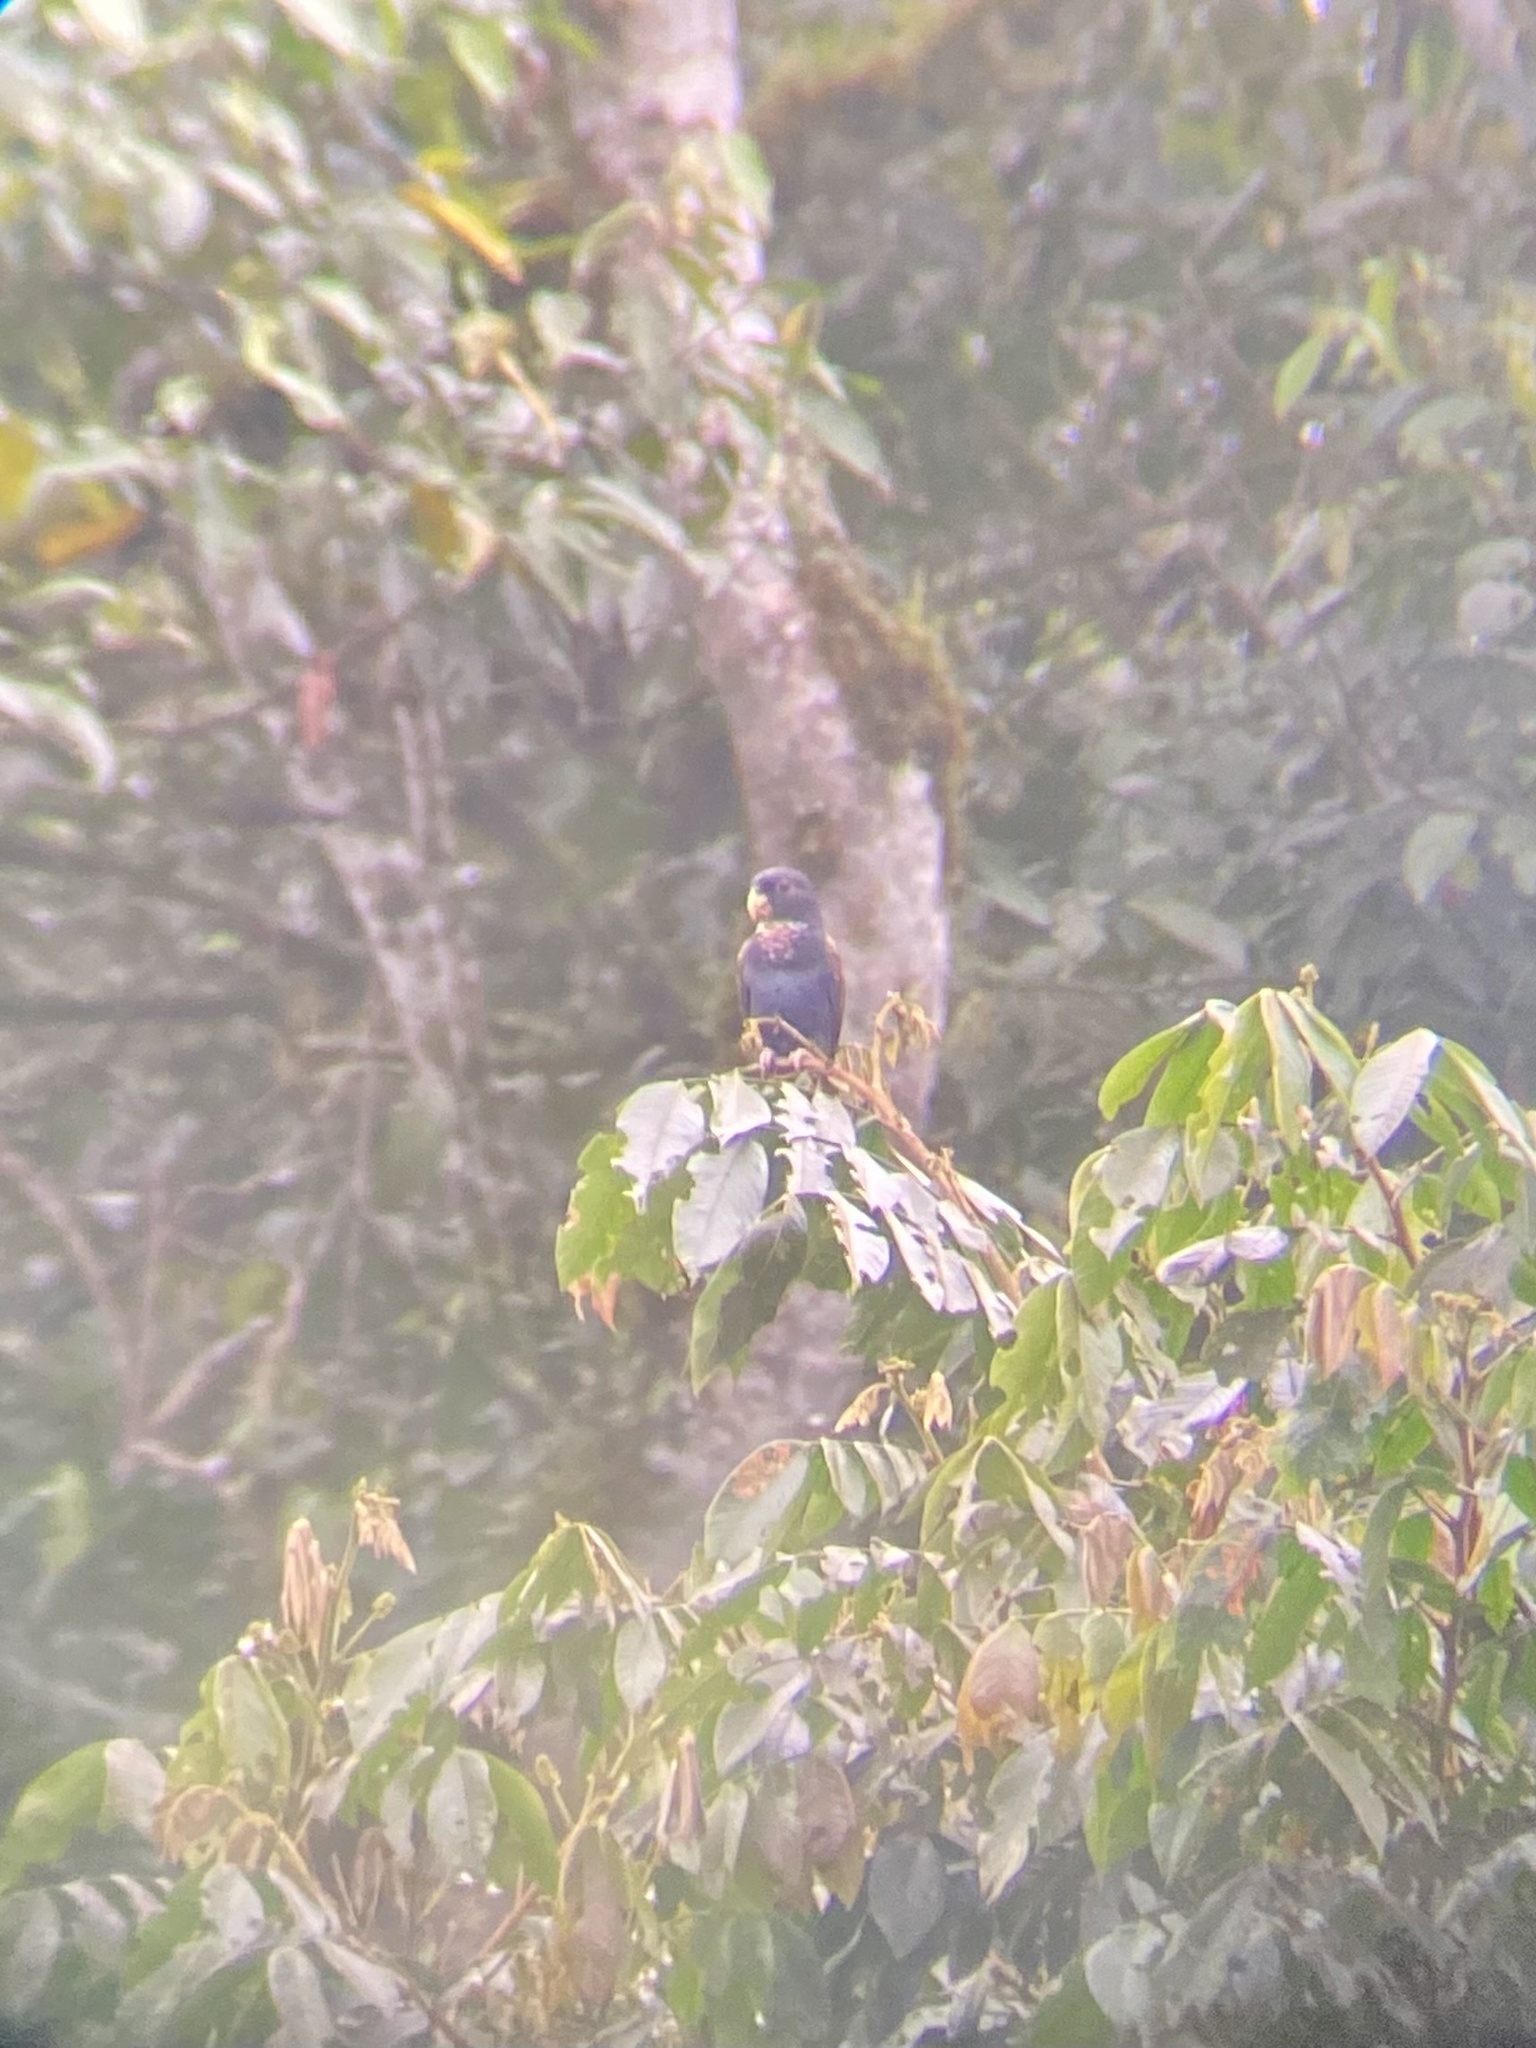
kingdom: Animalia
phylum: Chordata
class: Aves
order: Psittaciformes
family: Psittacidae
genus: Pionus
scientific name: Pionus chalcopterus
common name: Bronze-winged parrot
